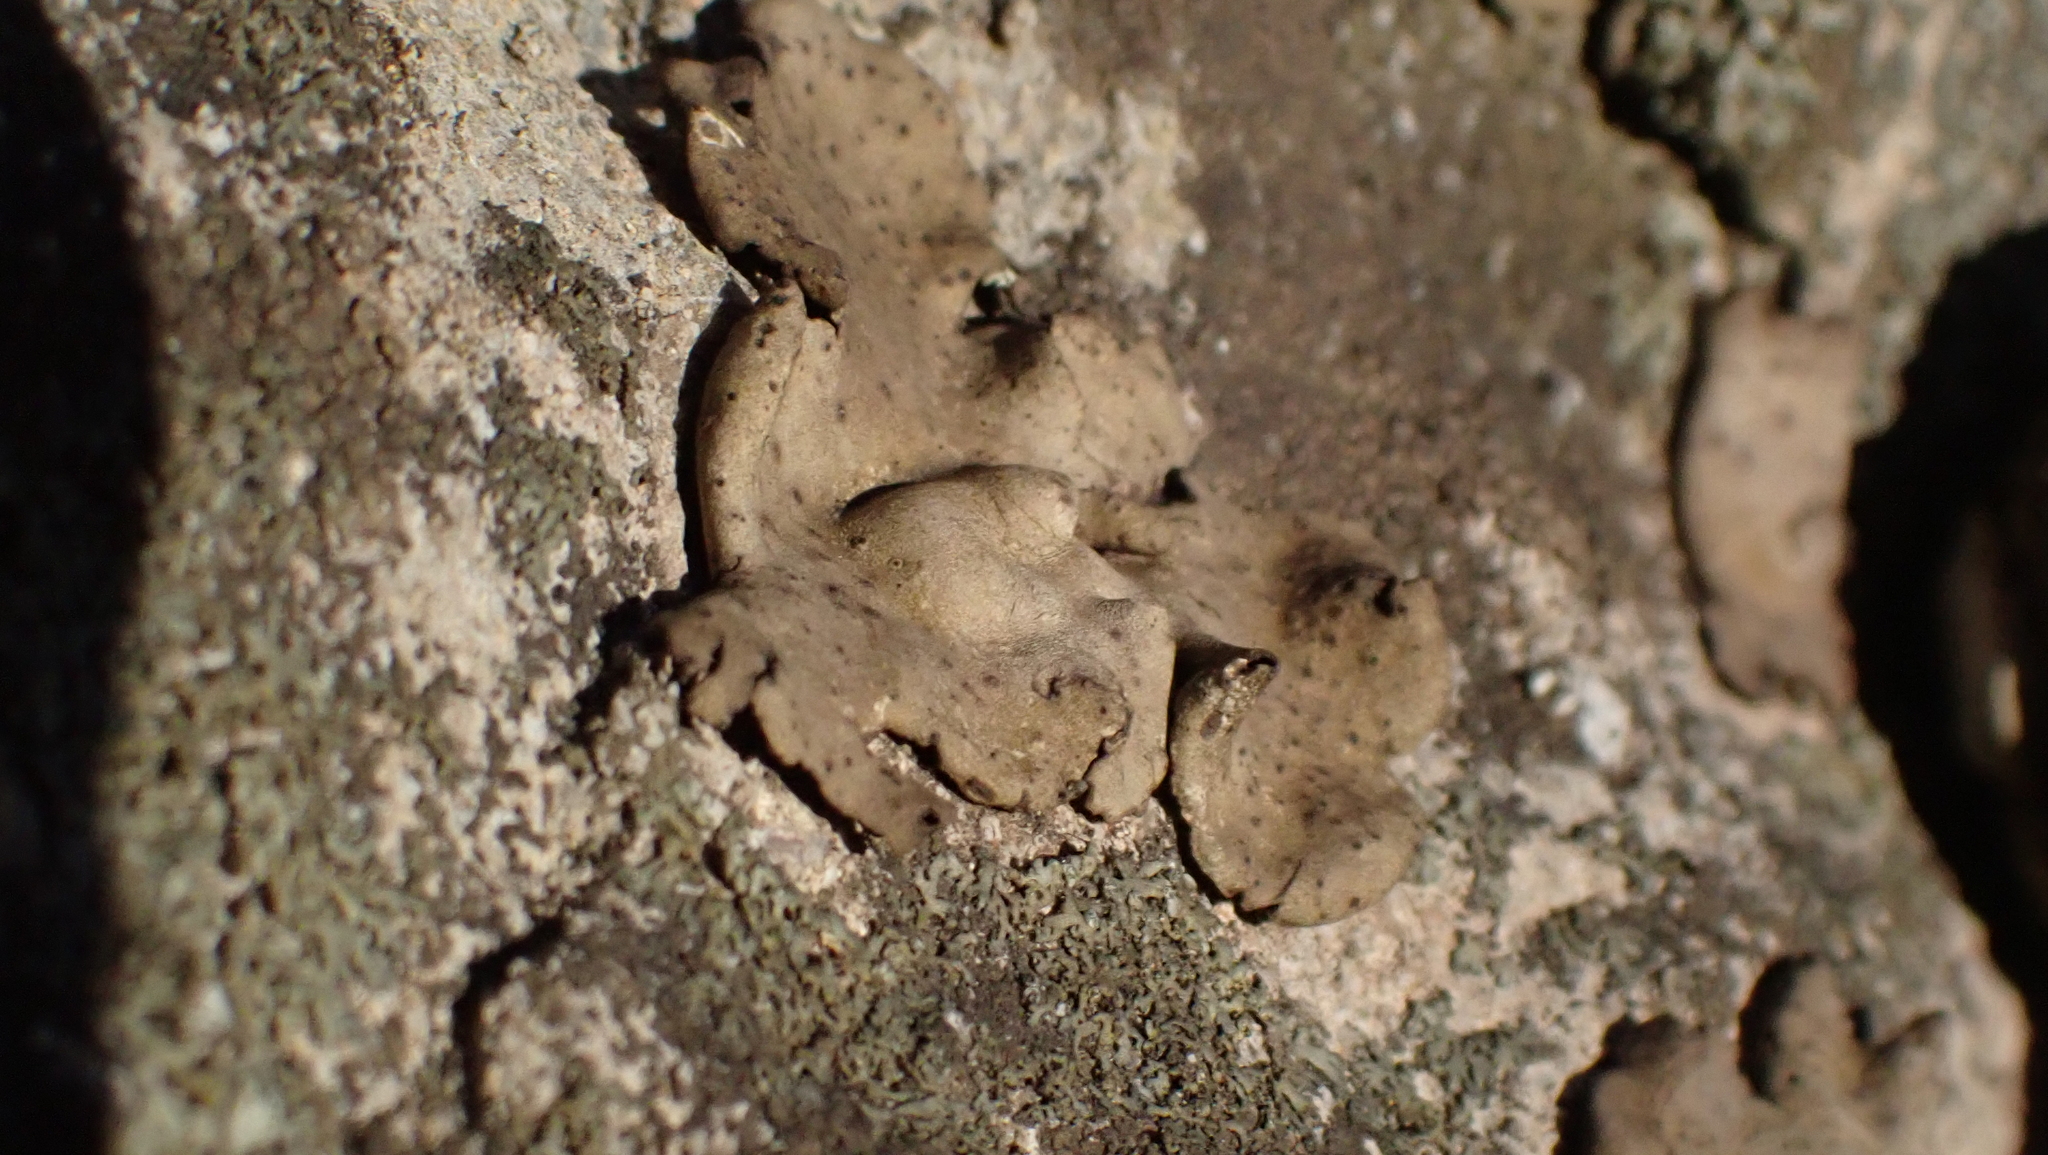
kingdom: Fungi
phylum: Ascomycota
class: Lecanoromycetes
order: Umbilicariales
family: Umbilicariaceae
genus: Umbilicaria
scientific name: Umbilicaria mammulata
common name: Smooth rock tripe
